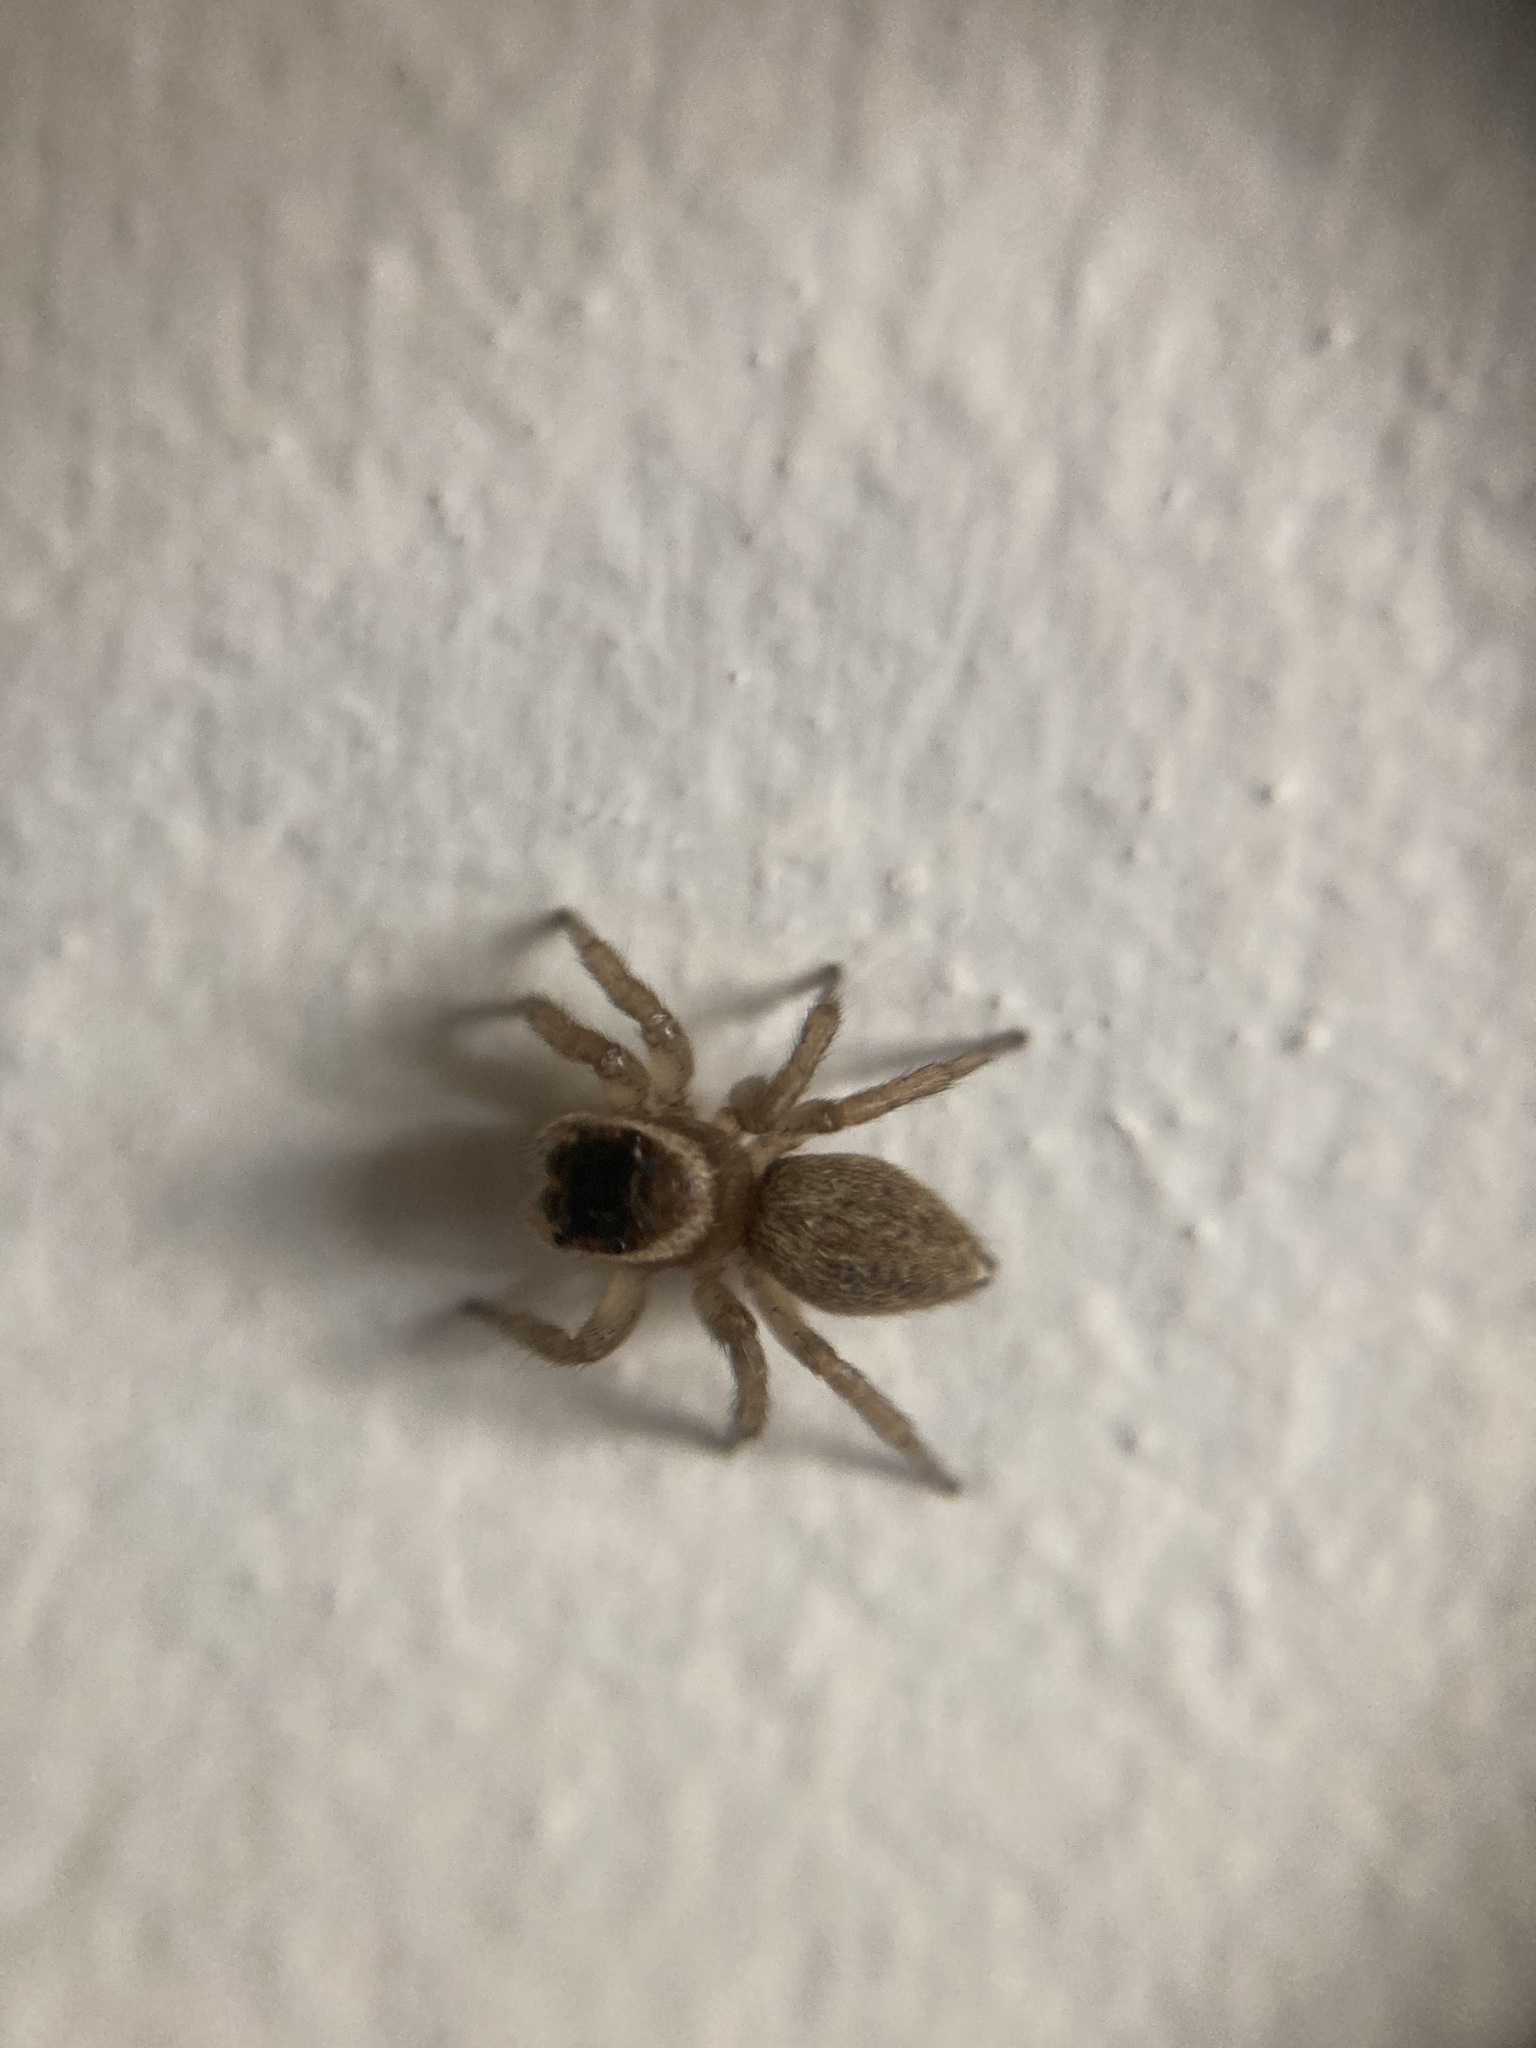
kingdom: Animalia
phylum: Arthropoda
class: Arachnida
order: Araneae
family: Salticidae
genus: Maratus
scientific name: Maratus griseus
